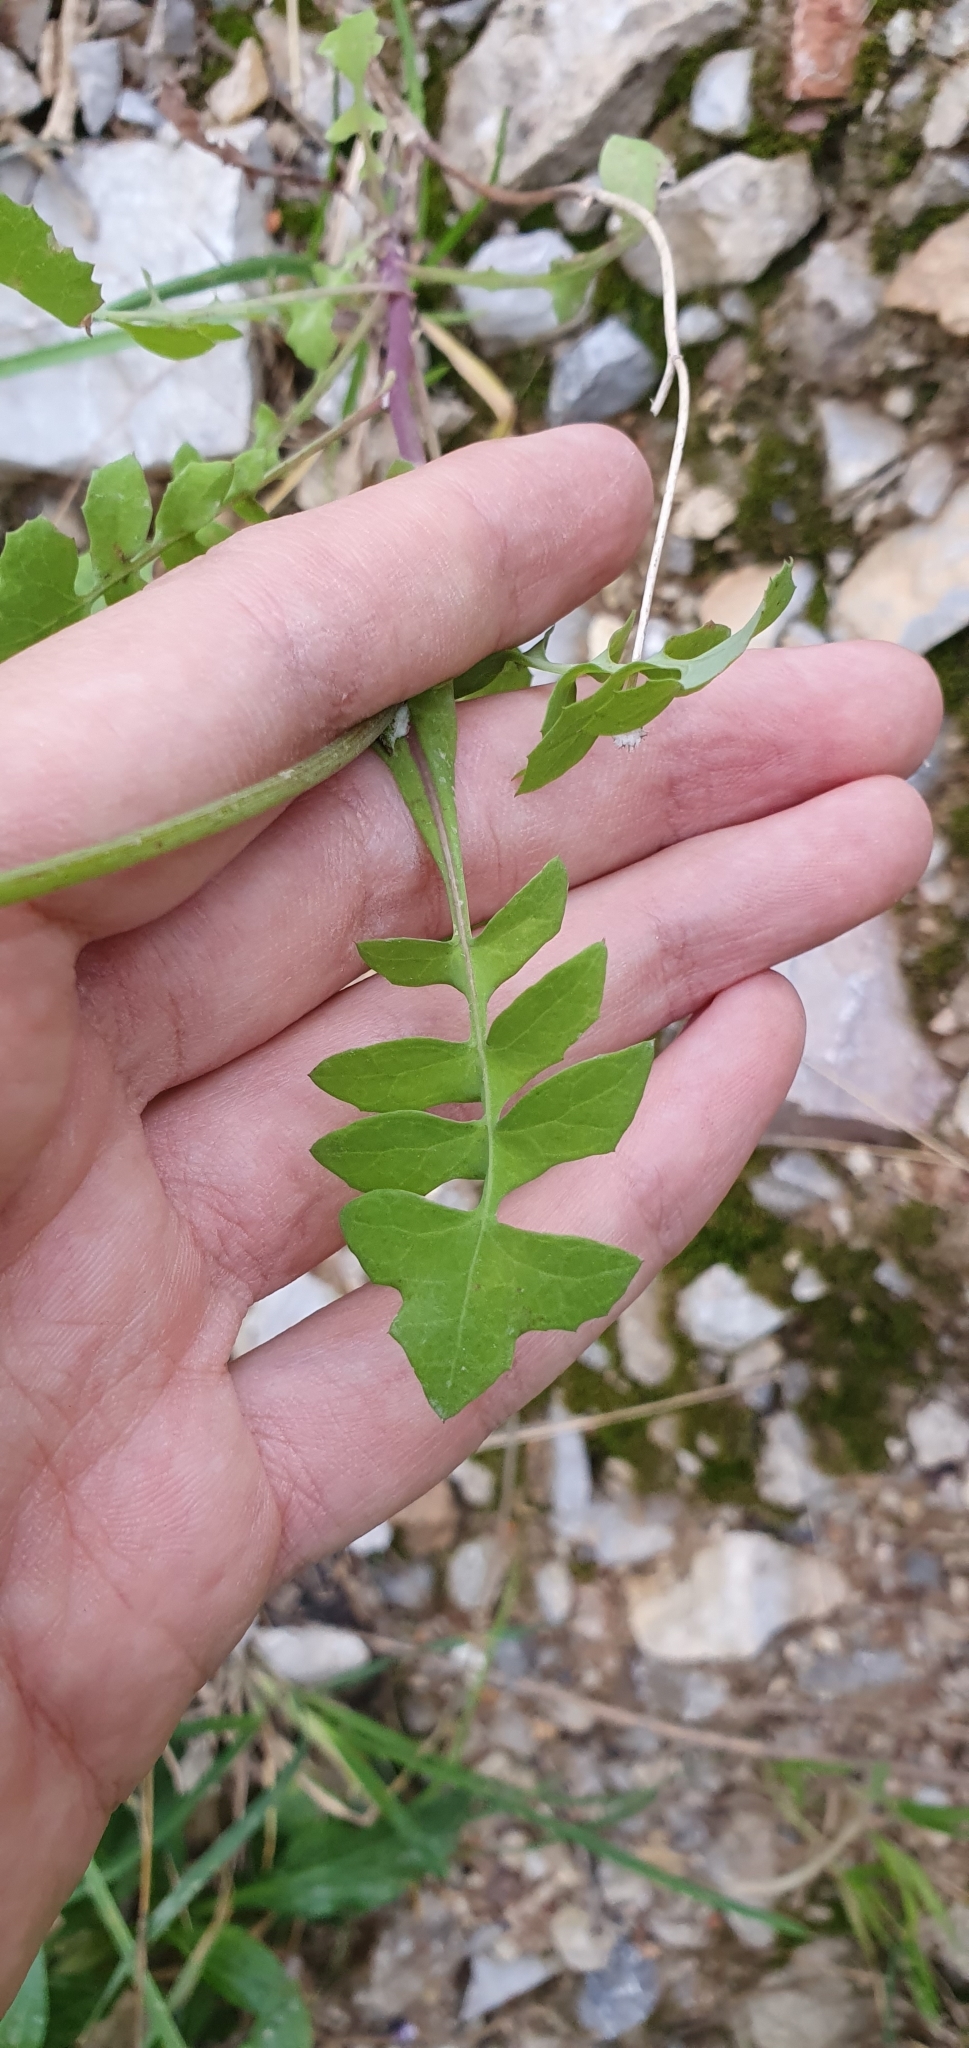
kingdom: Plantae
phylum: Tracheophyta
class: Magnoliopsida
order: Asterales
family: Asteraceae
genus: Sonchus
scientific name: Sonchus tenerrimus
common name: Clammy sowthistle
